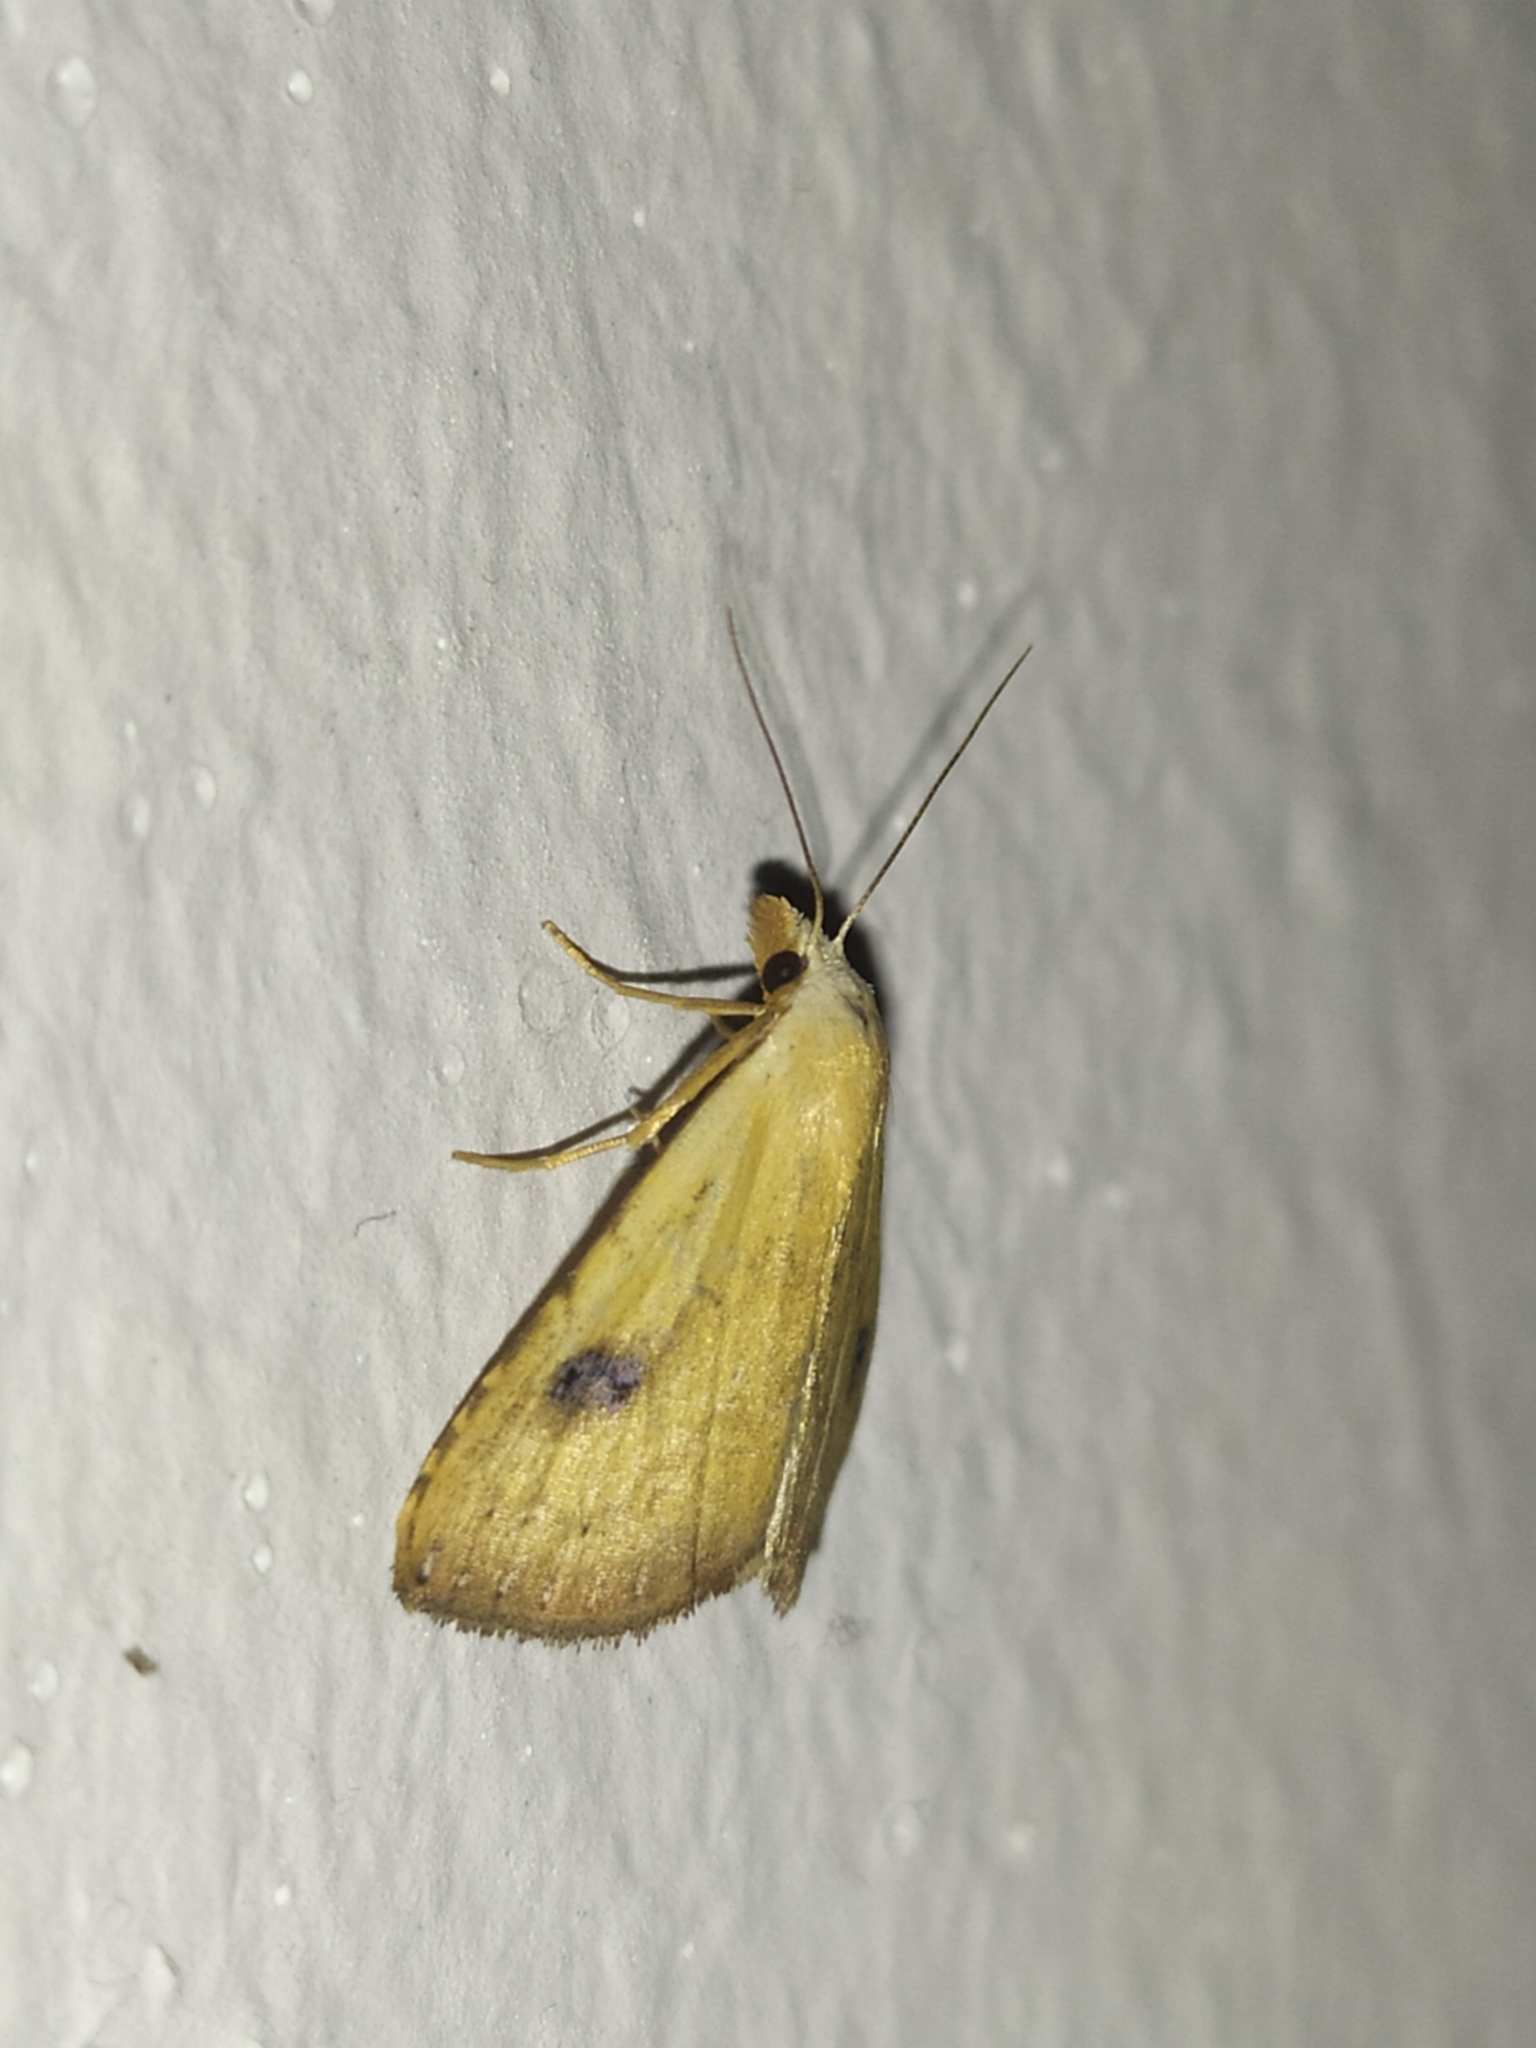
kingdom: Animalia
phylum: Arthropoda
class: Insecta
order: Lepidoptera
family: Erebidae
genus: Rivula
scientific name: Rivula sericealis
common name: Straw dot
